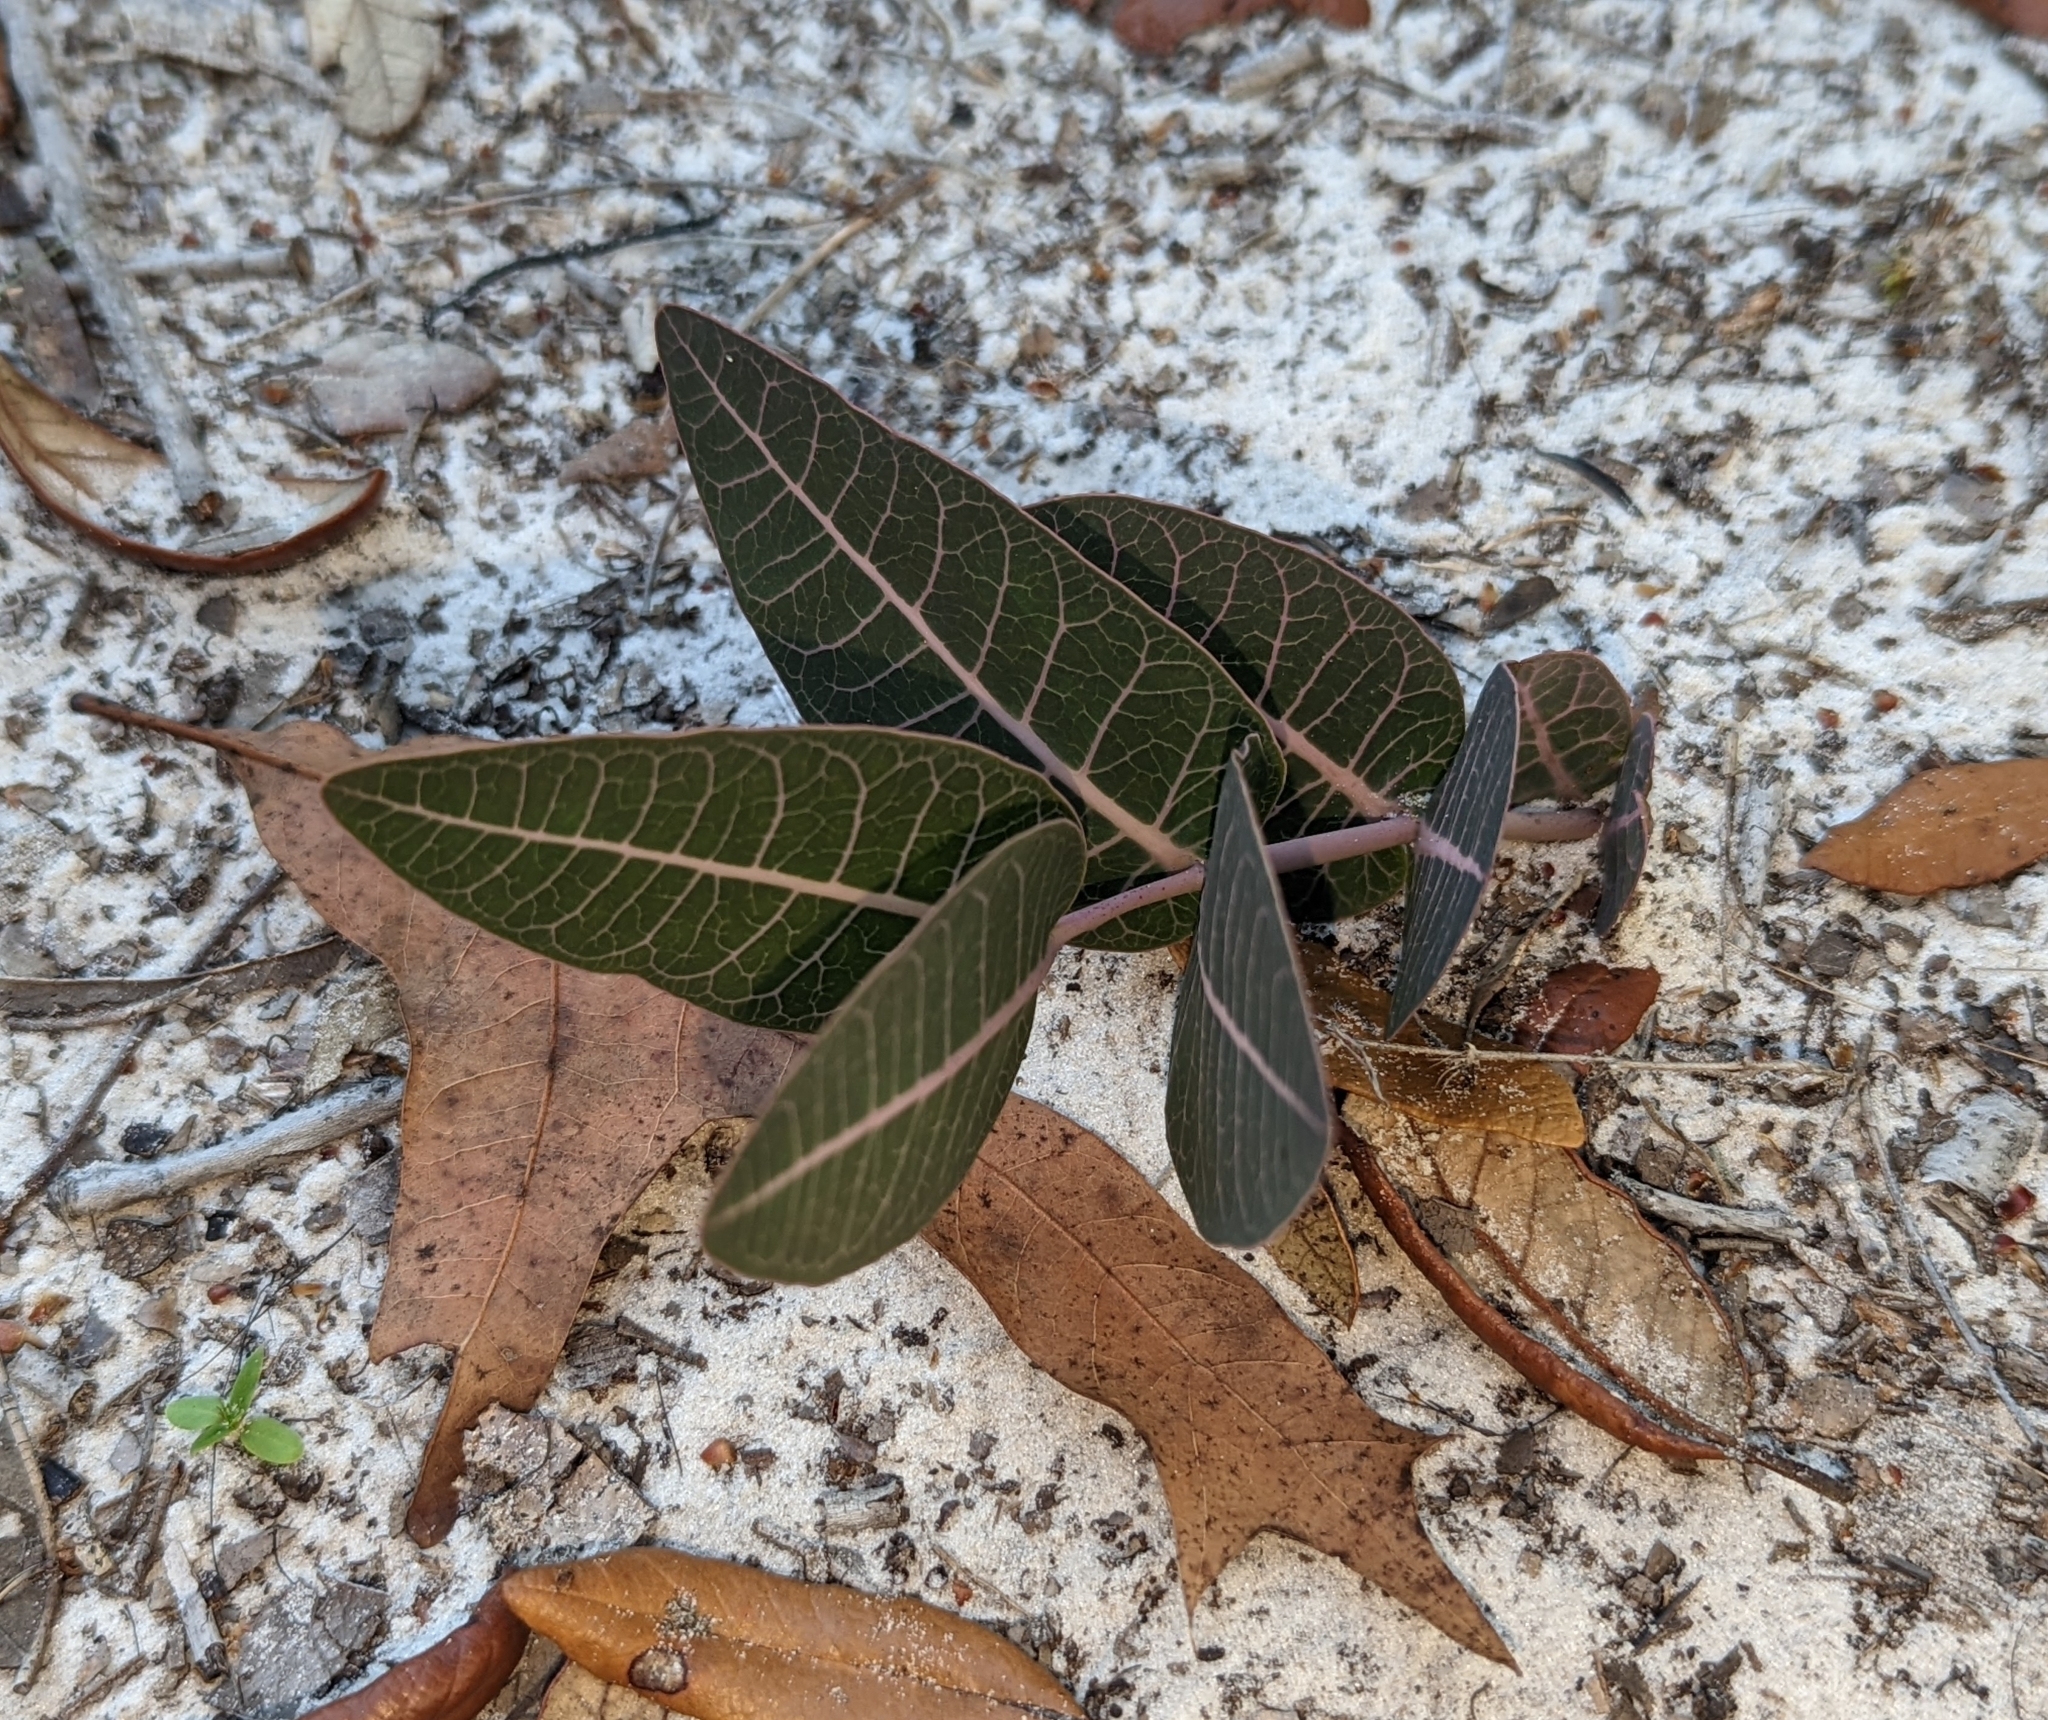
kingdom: Plantae
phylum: Tracheophyta
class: Magnoliopsida
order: Gentianales
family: Apocynaceae
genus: Asclepias
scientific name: Asclepias humistrata
